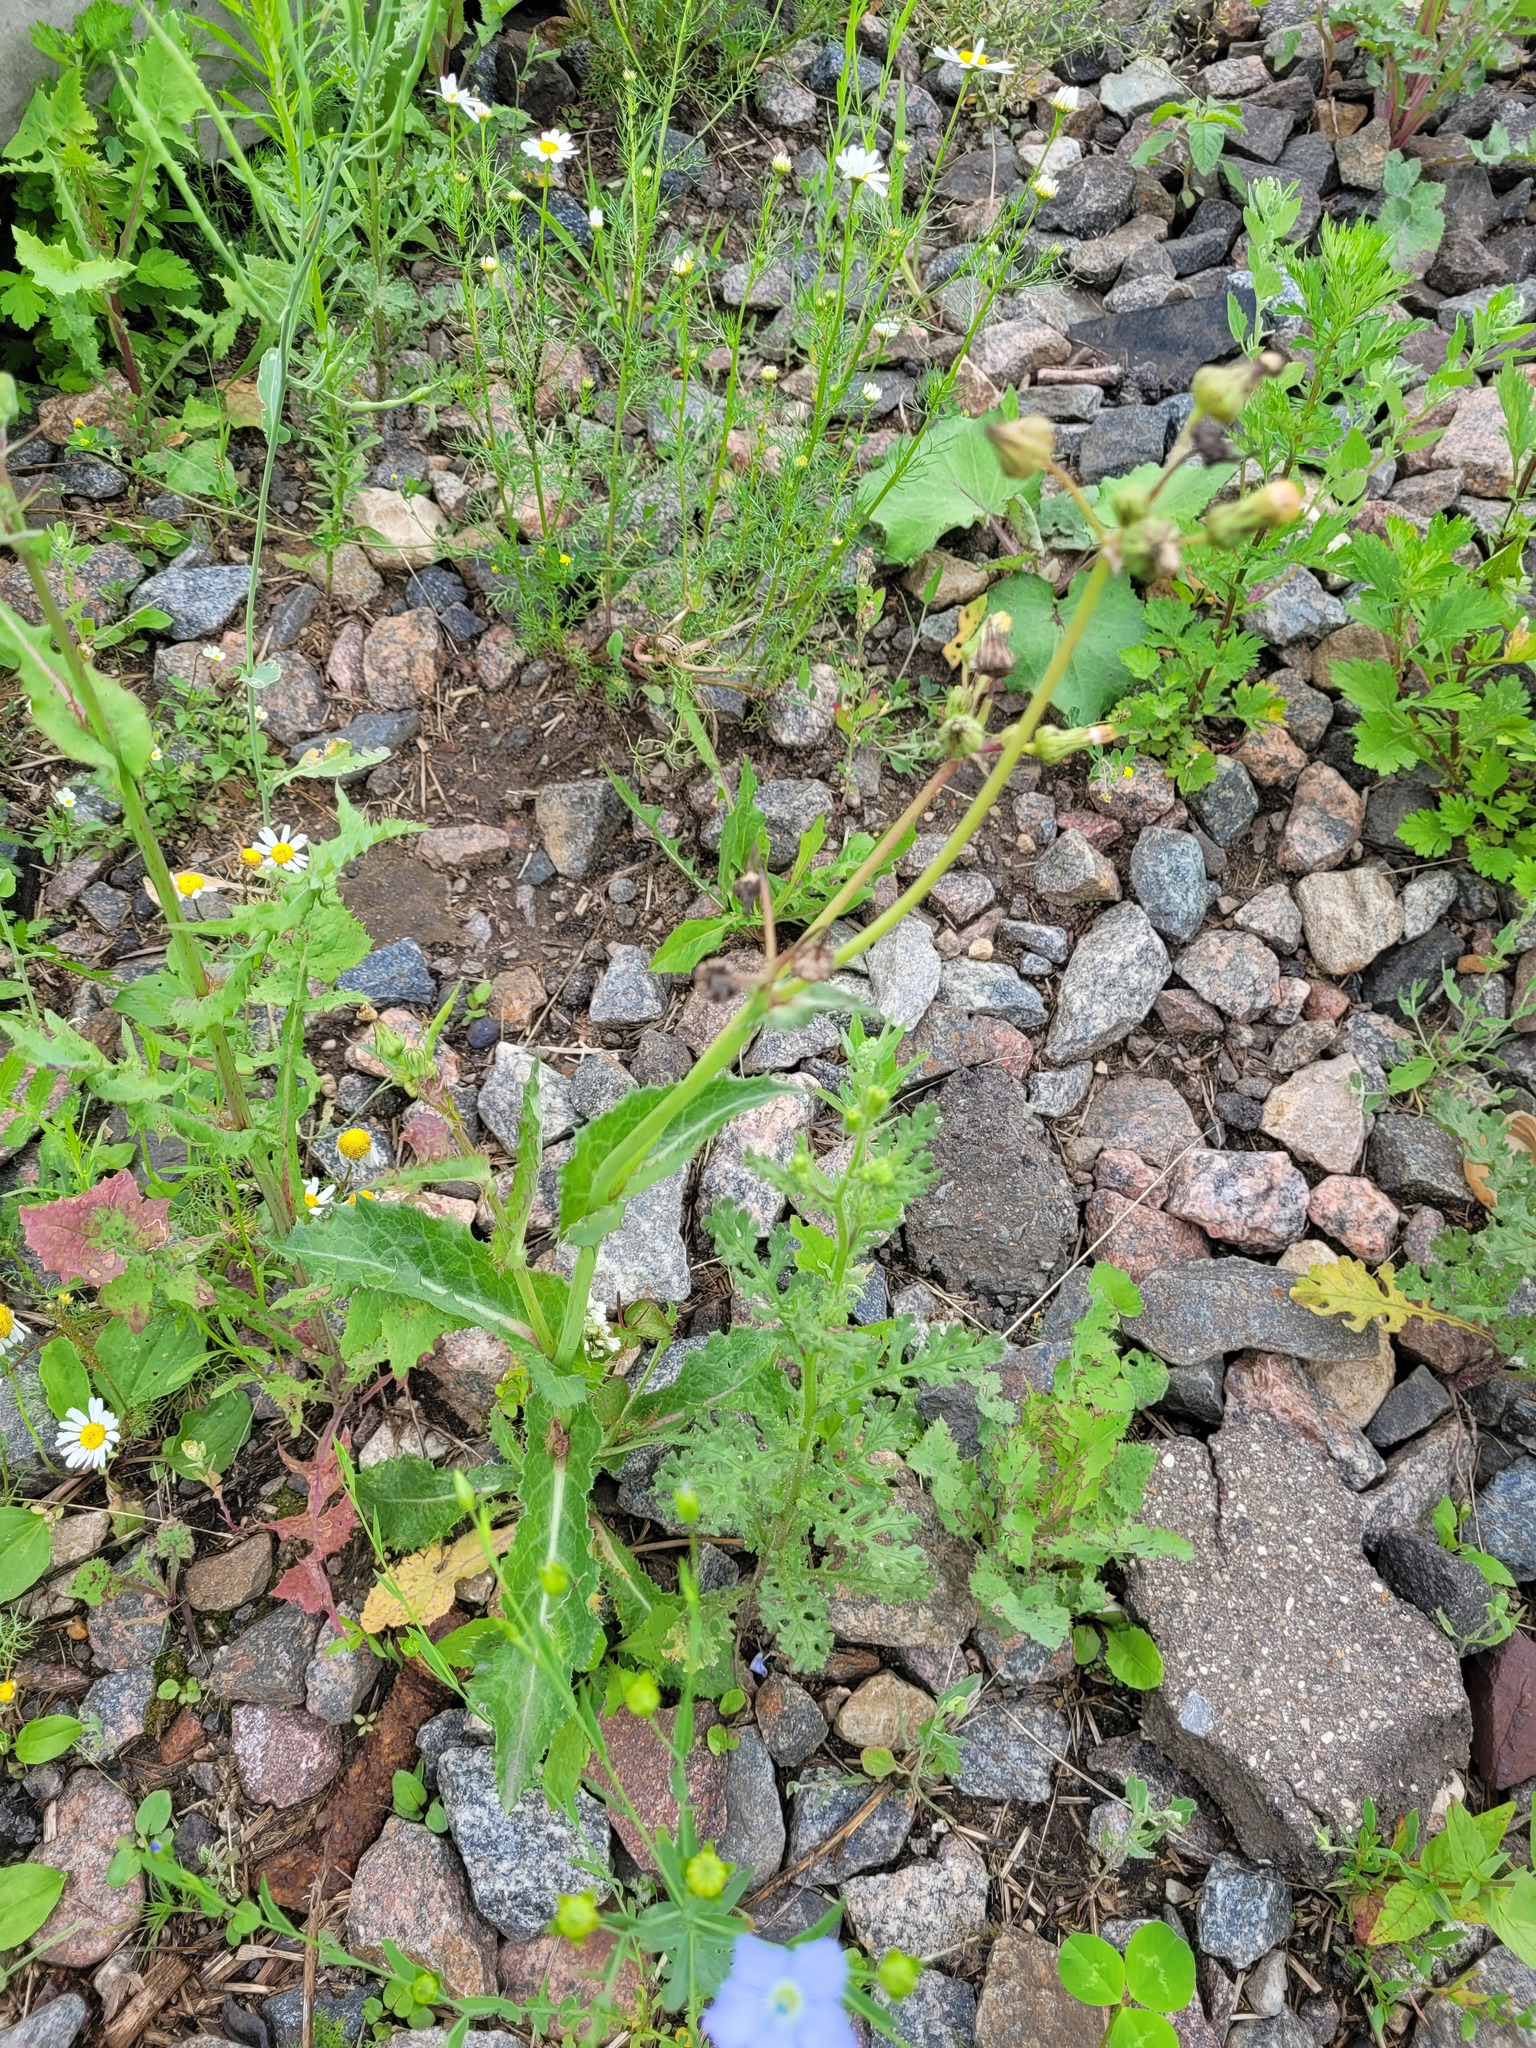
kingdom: Plantae
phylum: Tracheophyta
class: Magnoliopsida
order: Asterales
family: Asteraceae
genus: Sonchus
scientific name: Sonchus asper
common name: Prickly sow-thistle
